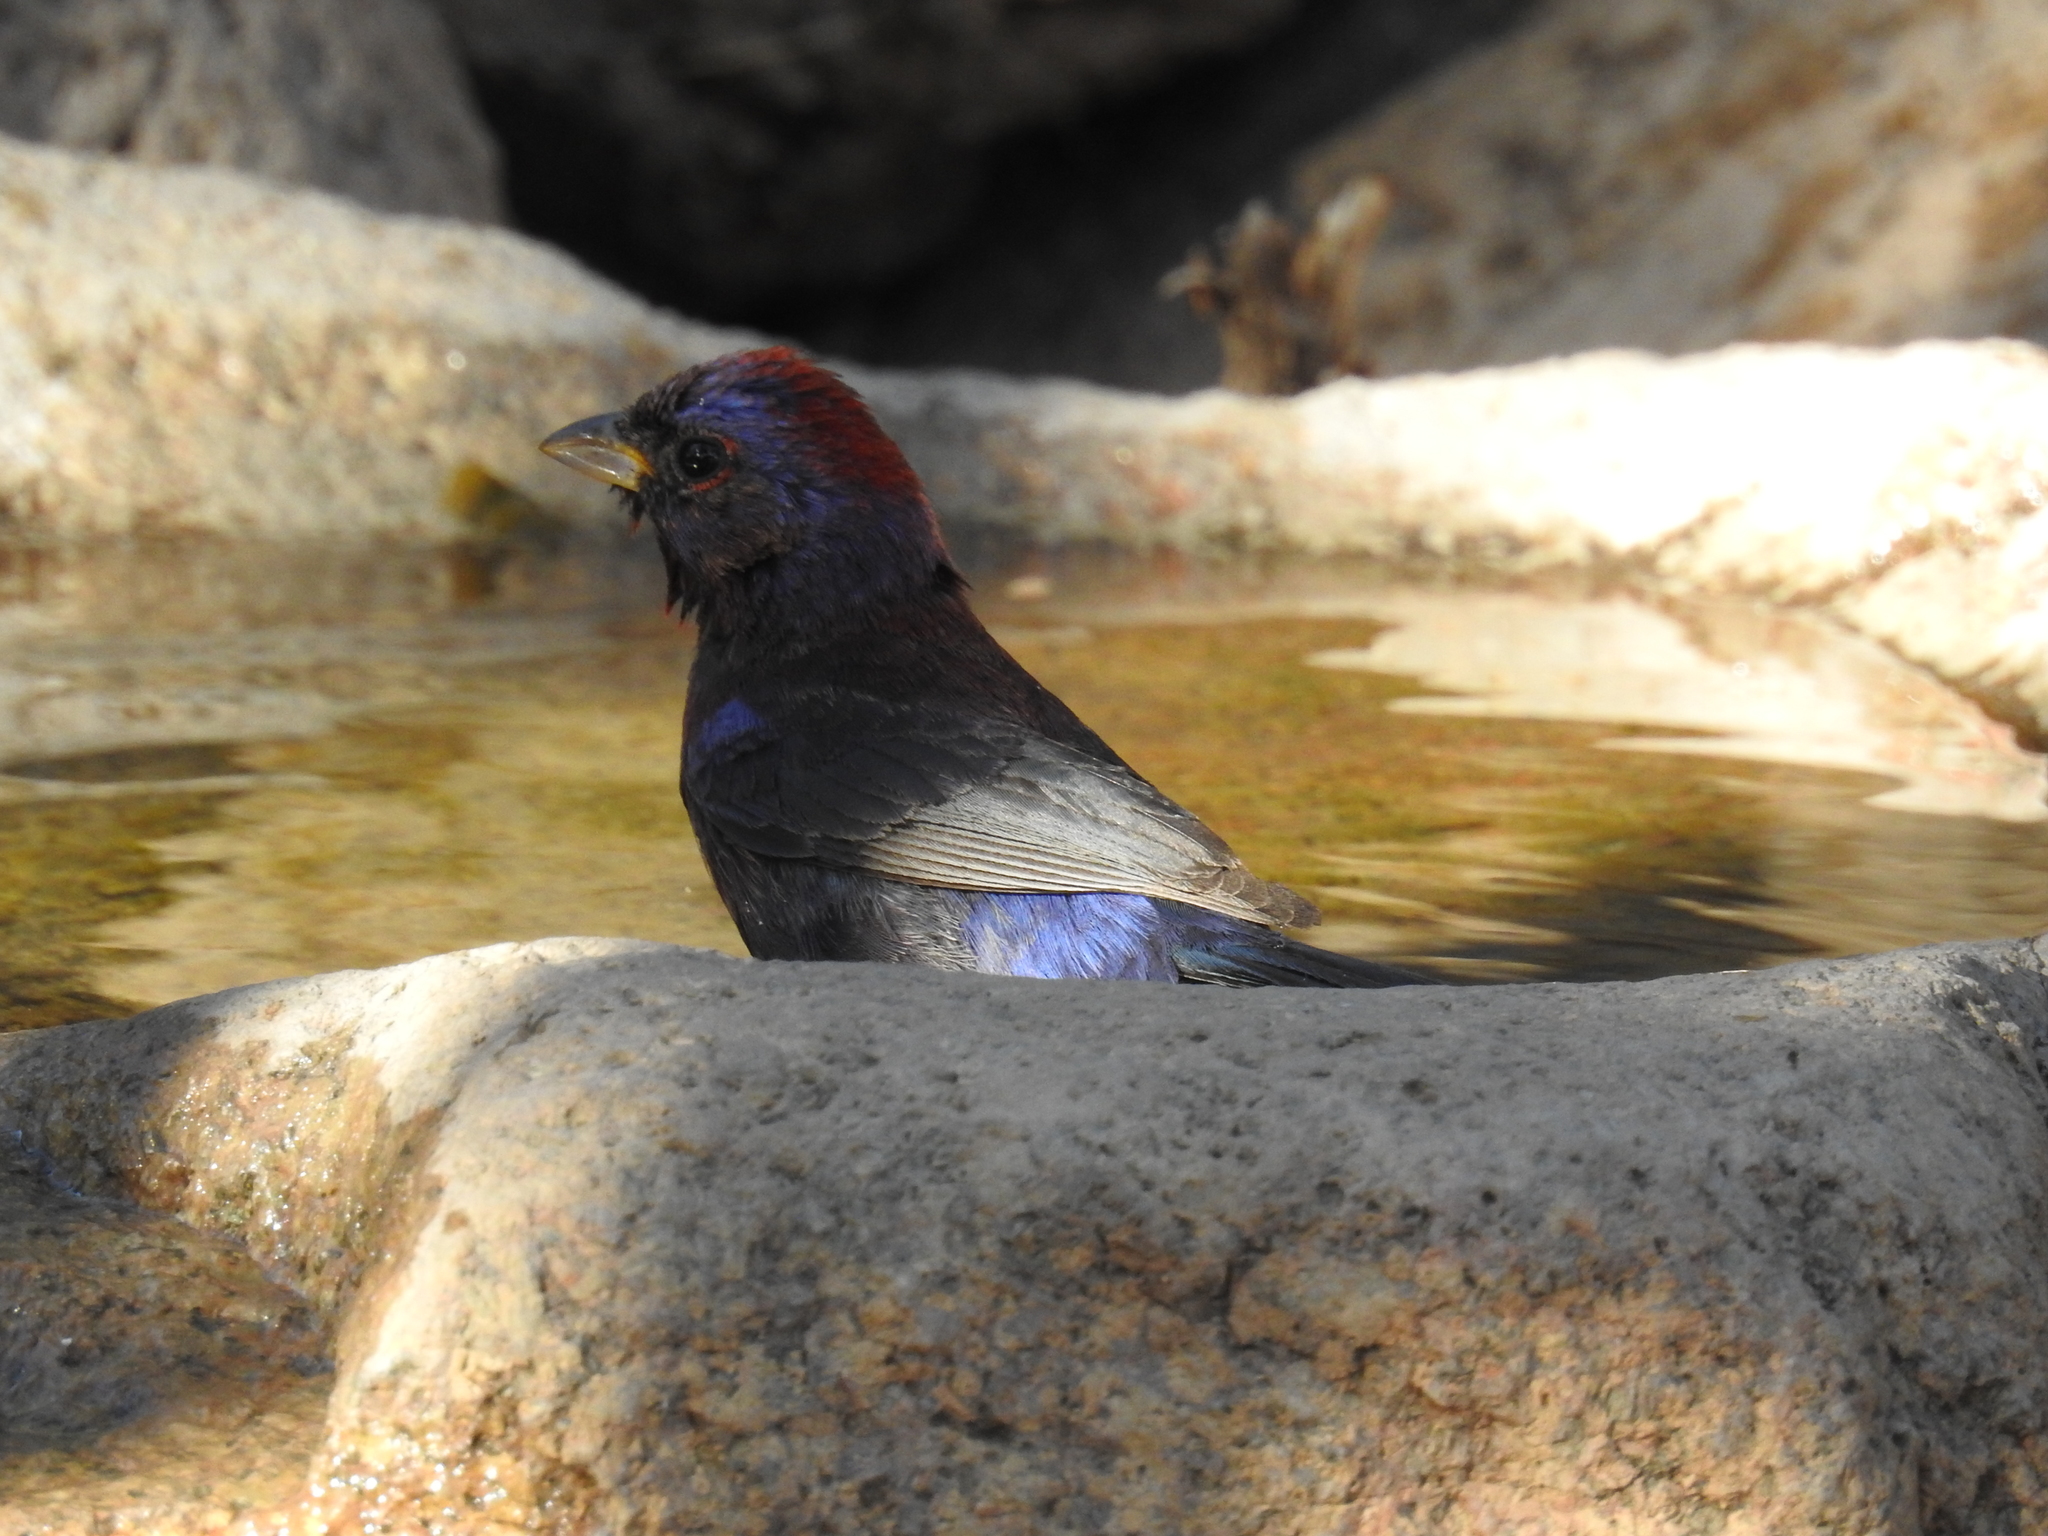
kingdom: Animalia
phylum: Chordata
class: Aves
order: Passeriformes
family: Cardinalidae
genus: Passerina
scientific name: Passerina versicolor
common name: Varied bunting
